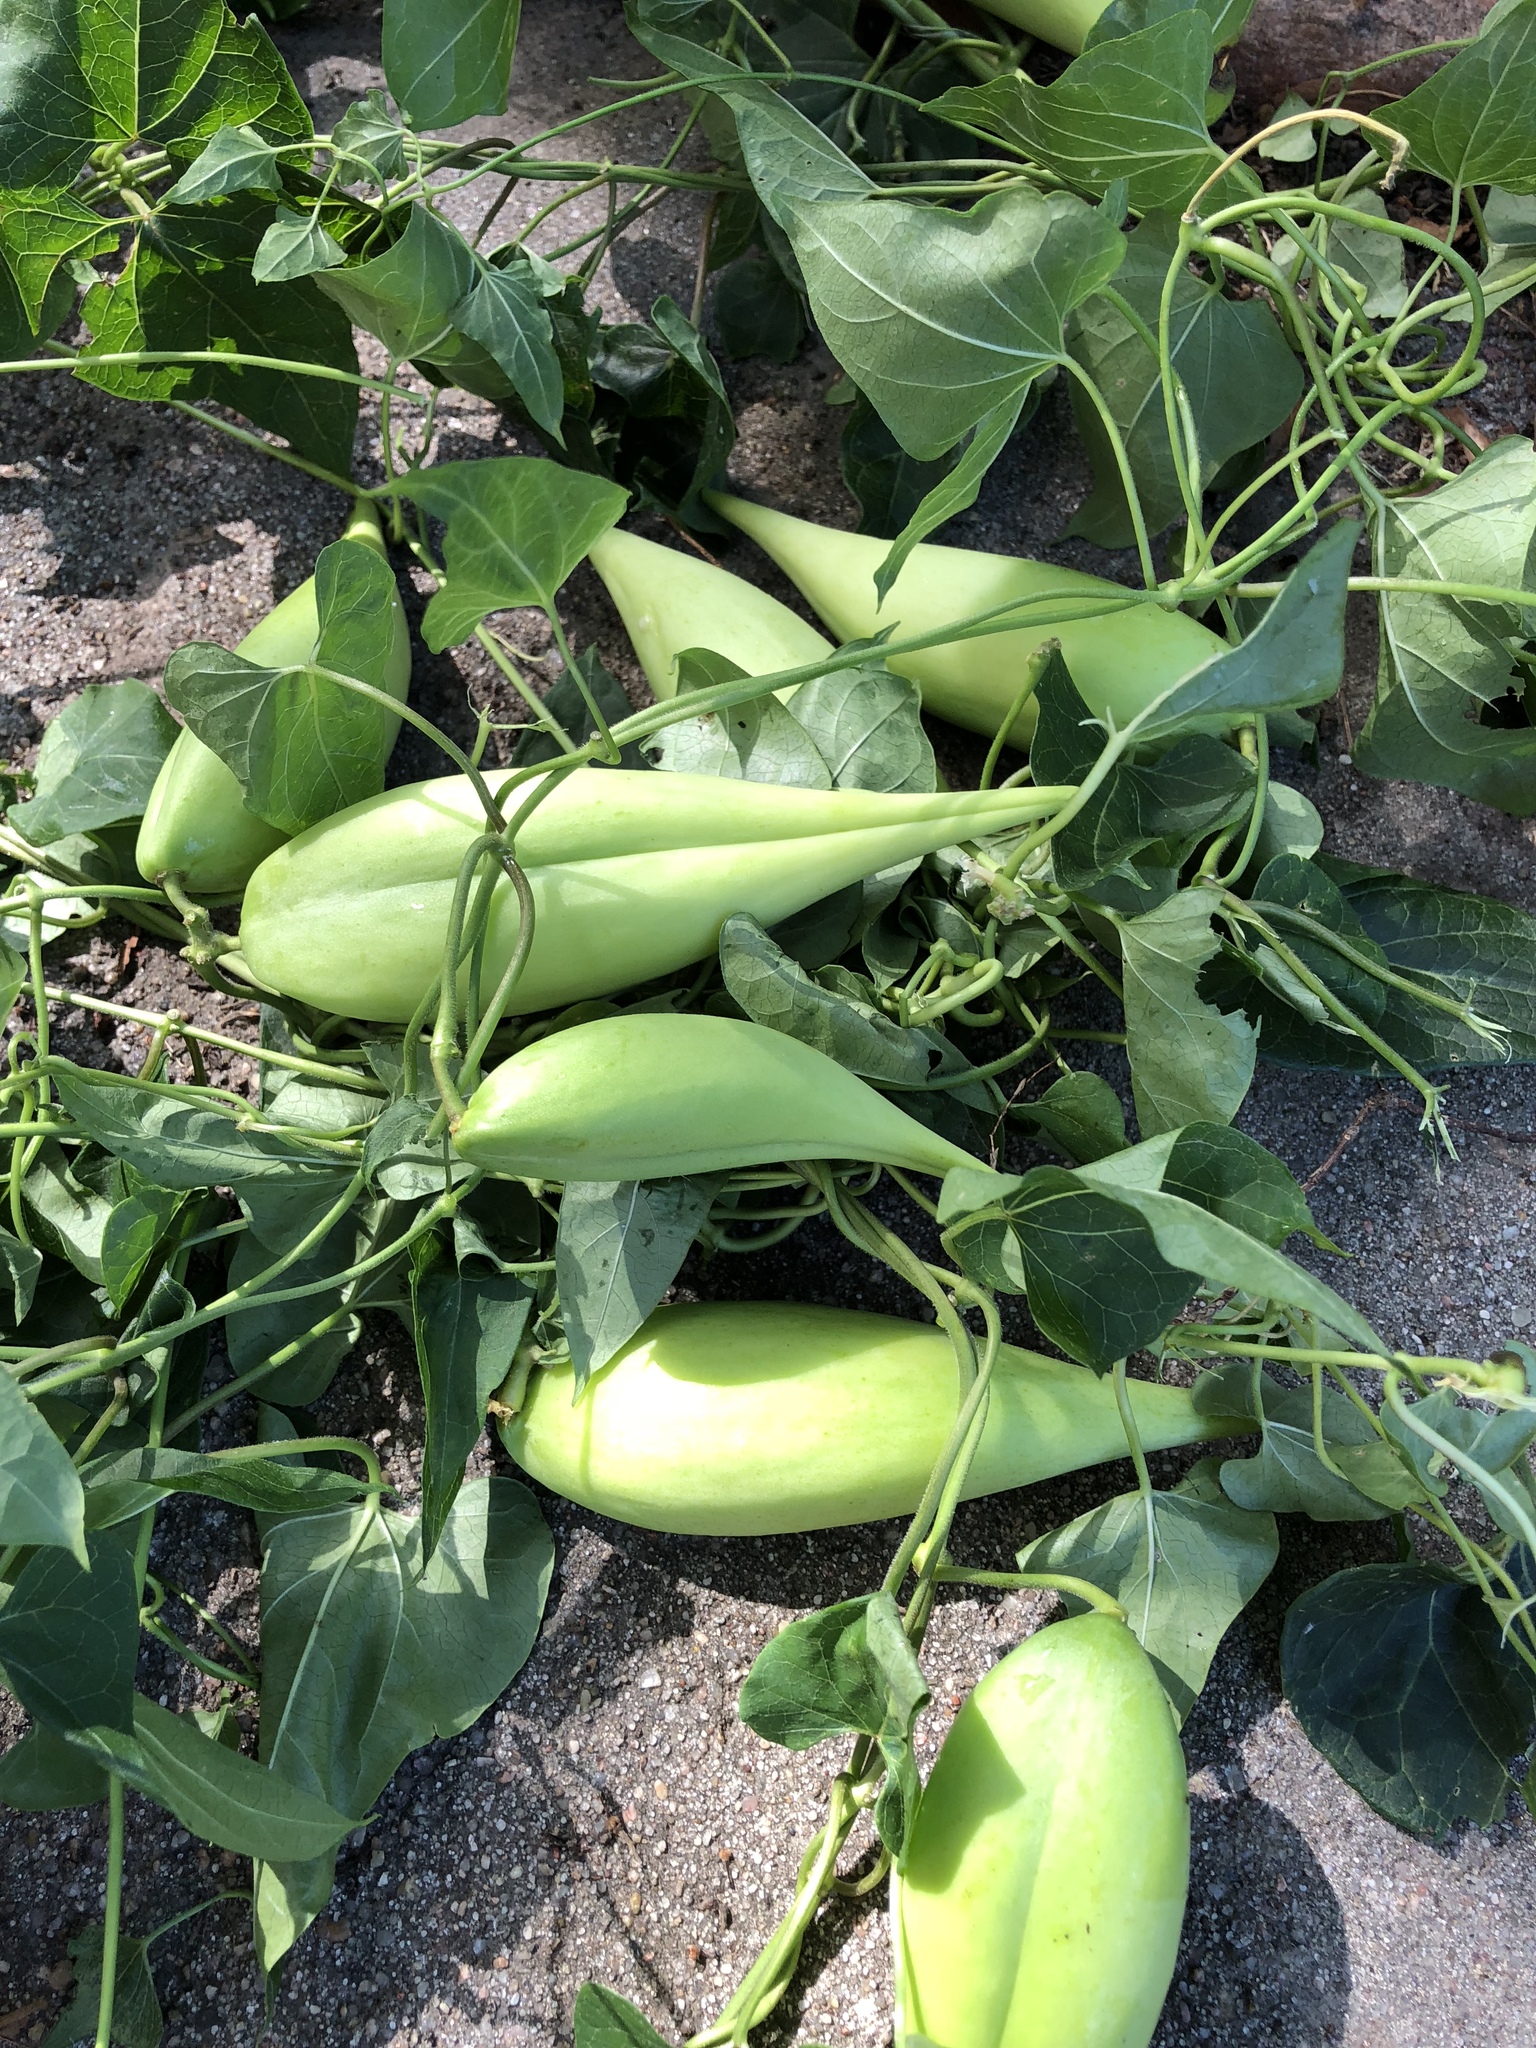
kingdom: Plantae
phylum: Tracheophyta
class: Magnoliopsida
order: Gentianales
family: Apocynaceae
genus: Cynanchum
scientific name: Cynanchum laeve
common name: Sandvine
